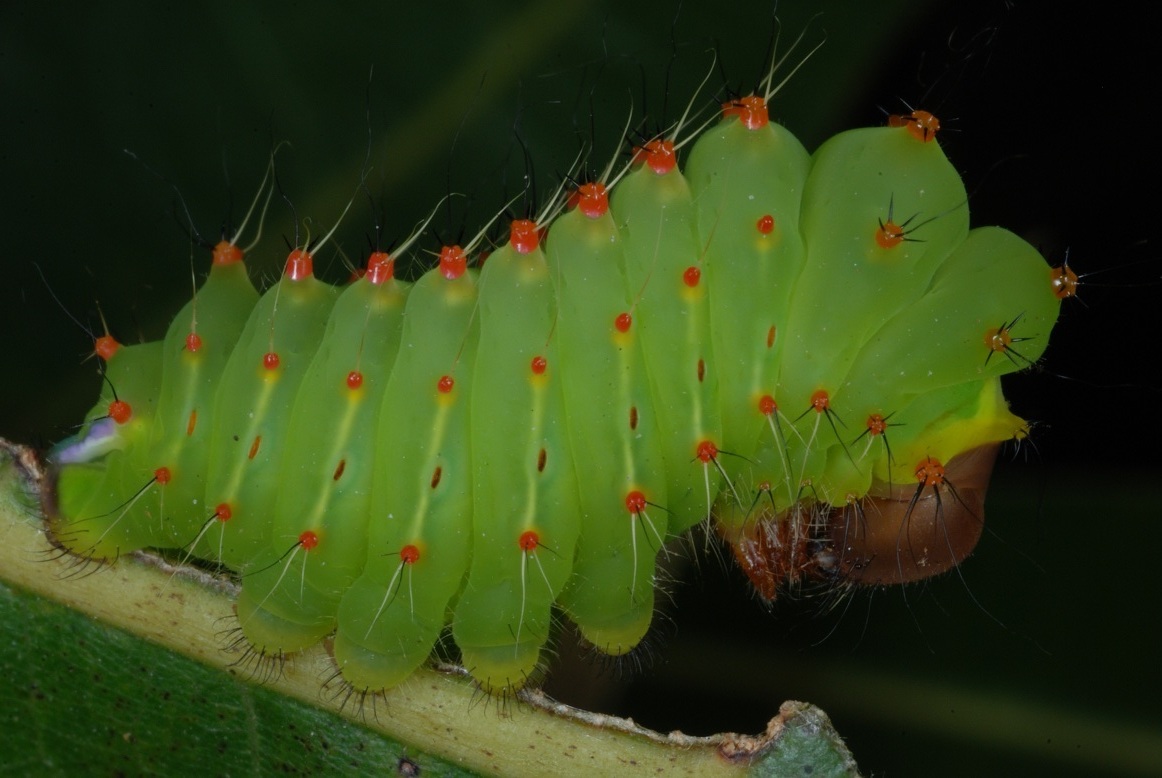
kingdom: Animalia
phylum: Arthropoda
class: Insecta
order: Lepidoptera
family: Saturniidae
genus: Antheraea
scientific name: Antheraea polyphemus
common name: Polyphemus moth
